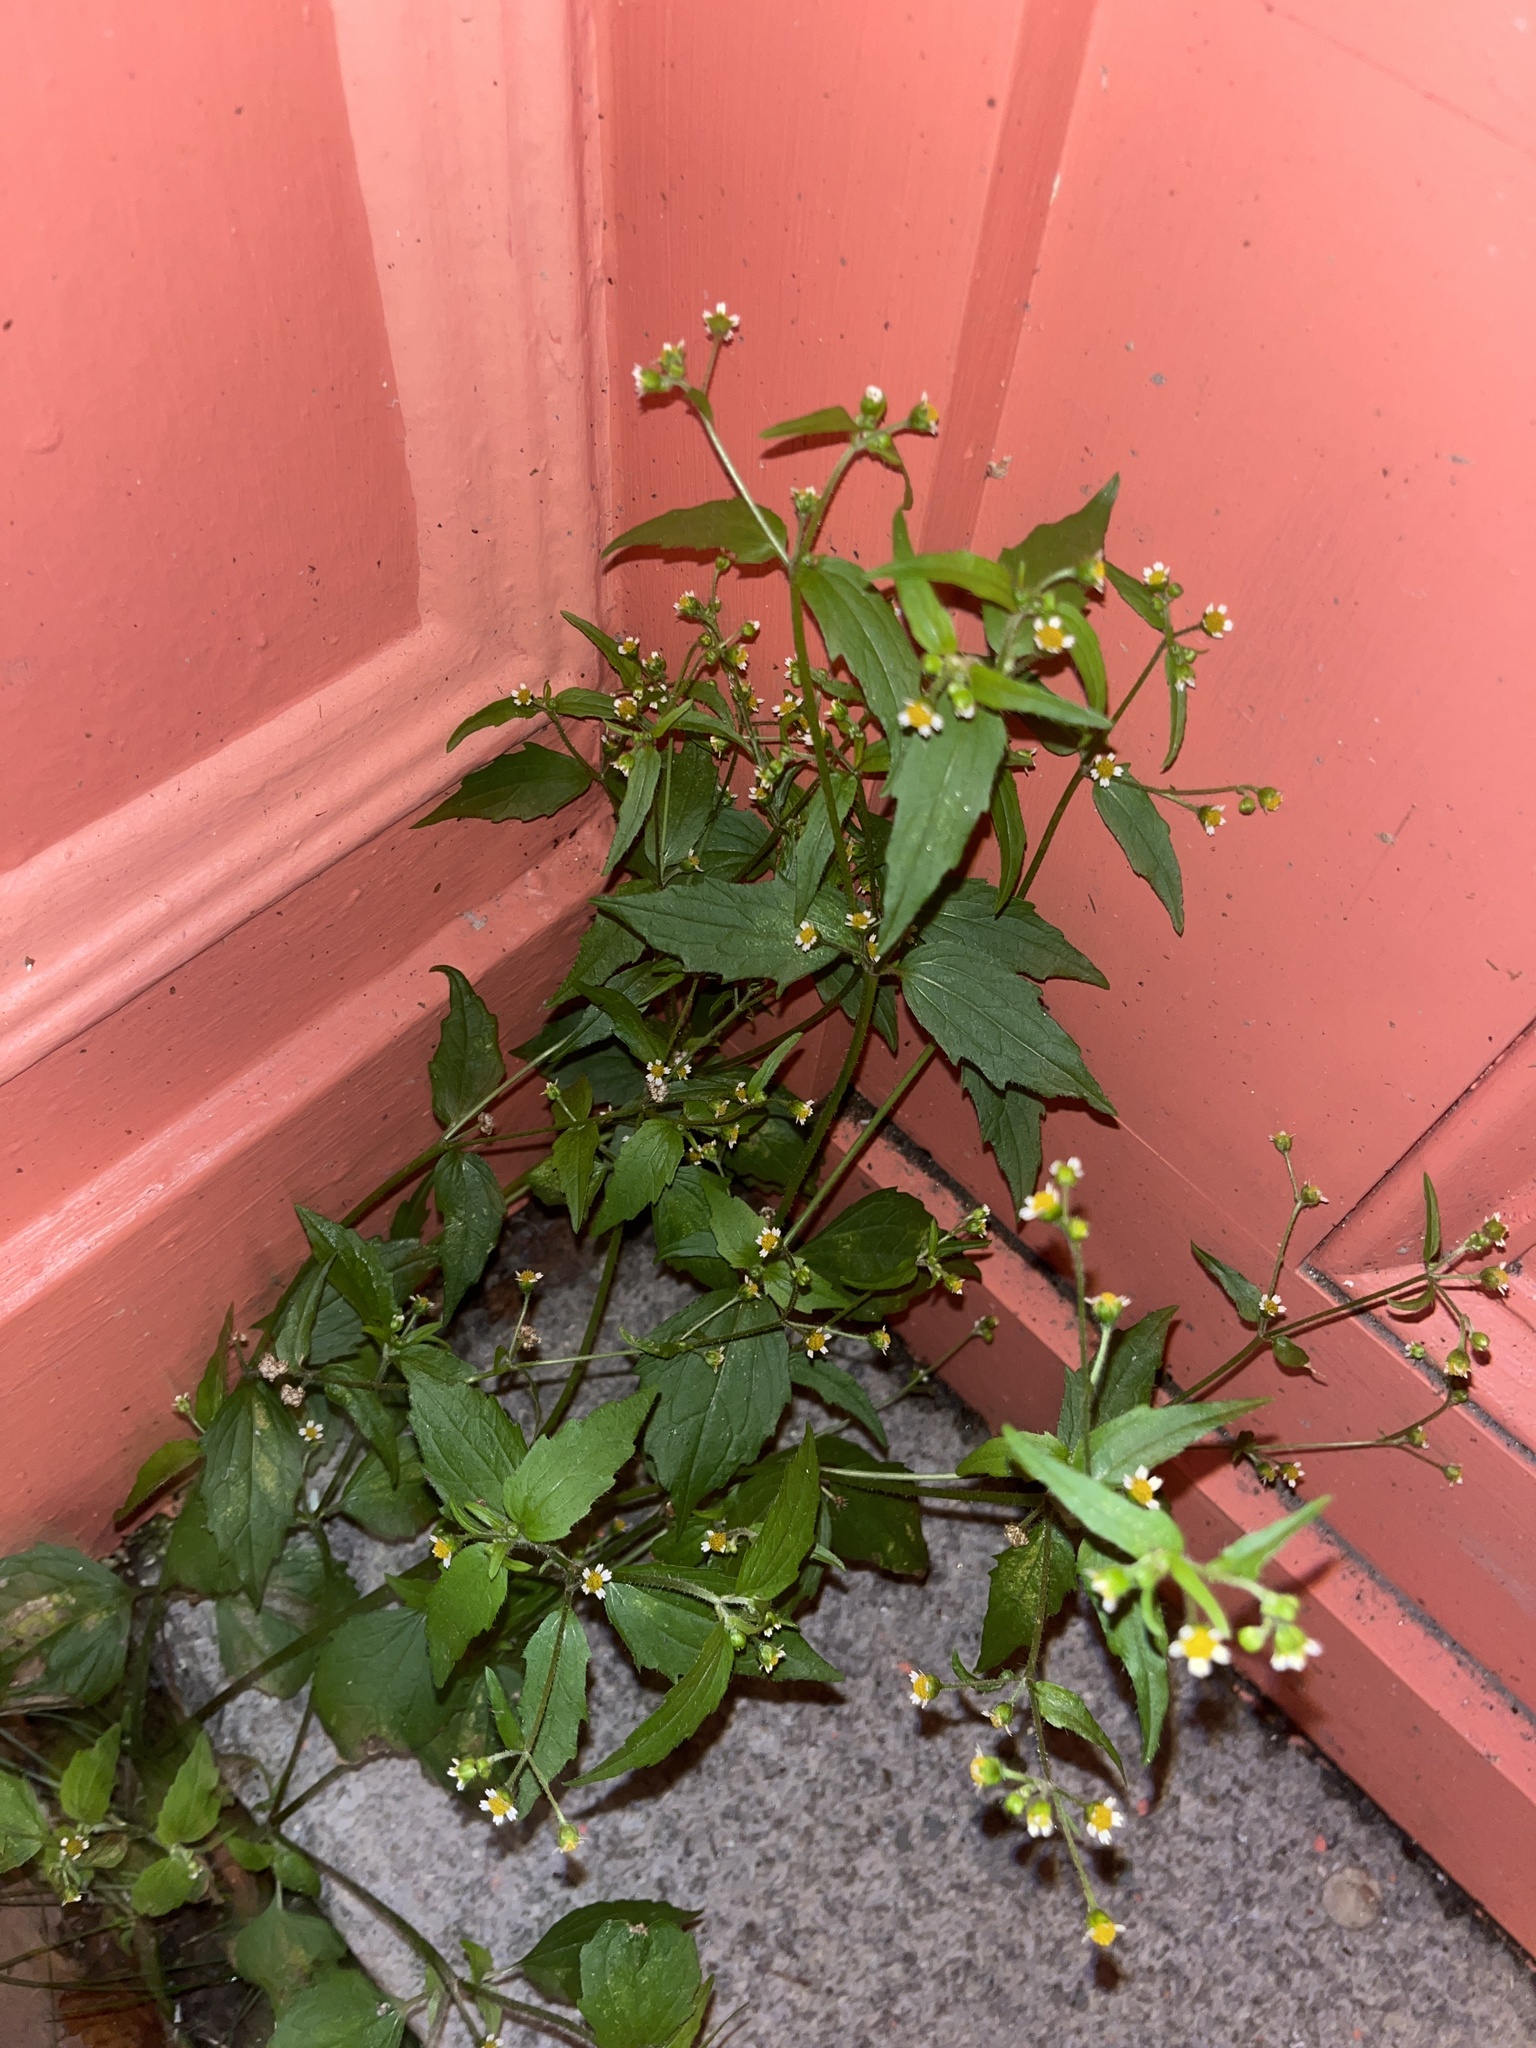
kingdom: Plantae
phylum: Tracheophyta
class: Magnoliopsida
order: Asterales
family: Asteraceae
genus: Galinsoga
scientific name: Galinsoga quadriradiata
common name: Shaggy soldier
